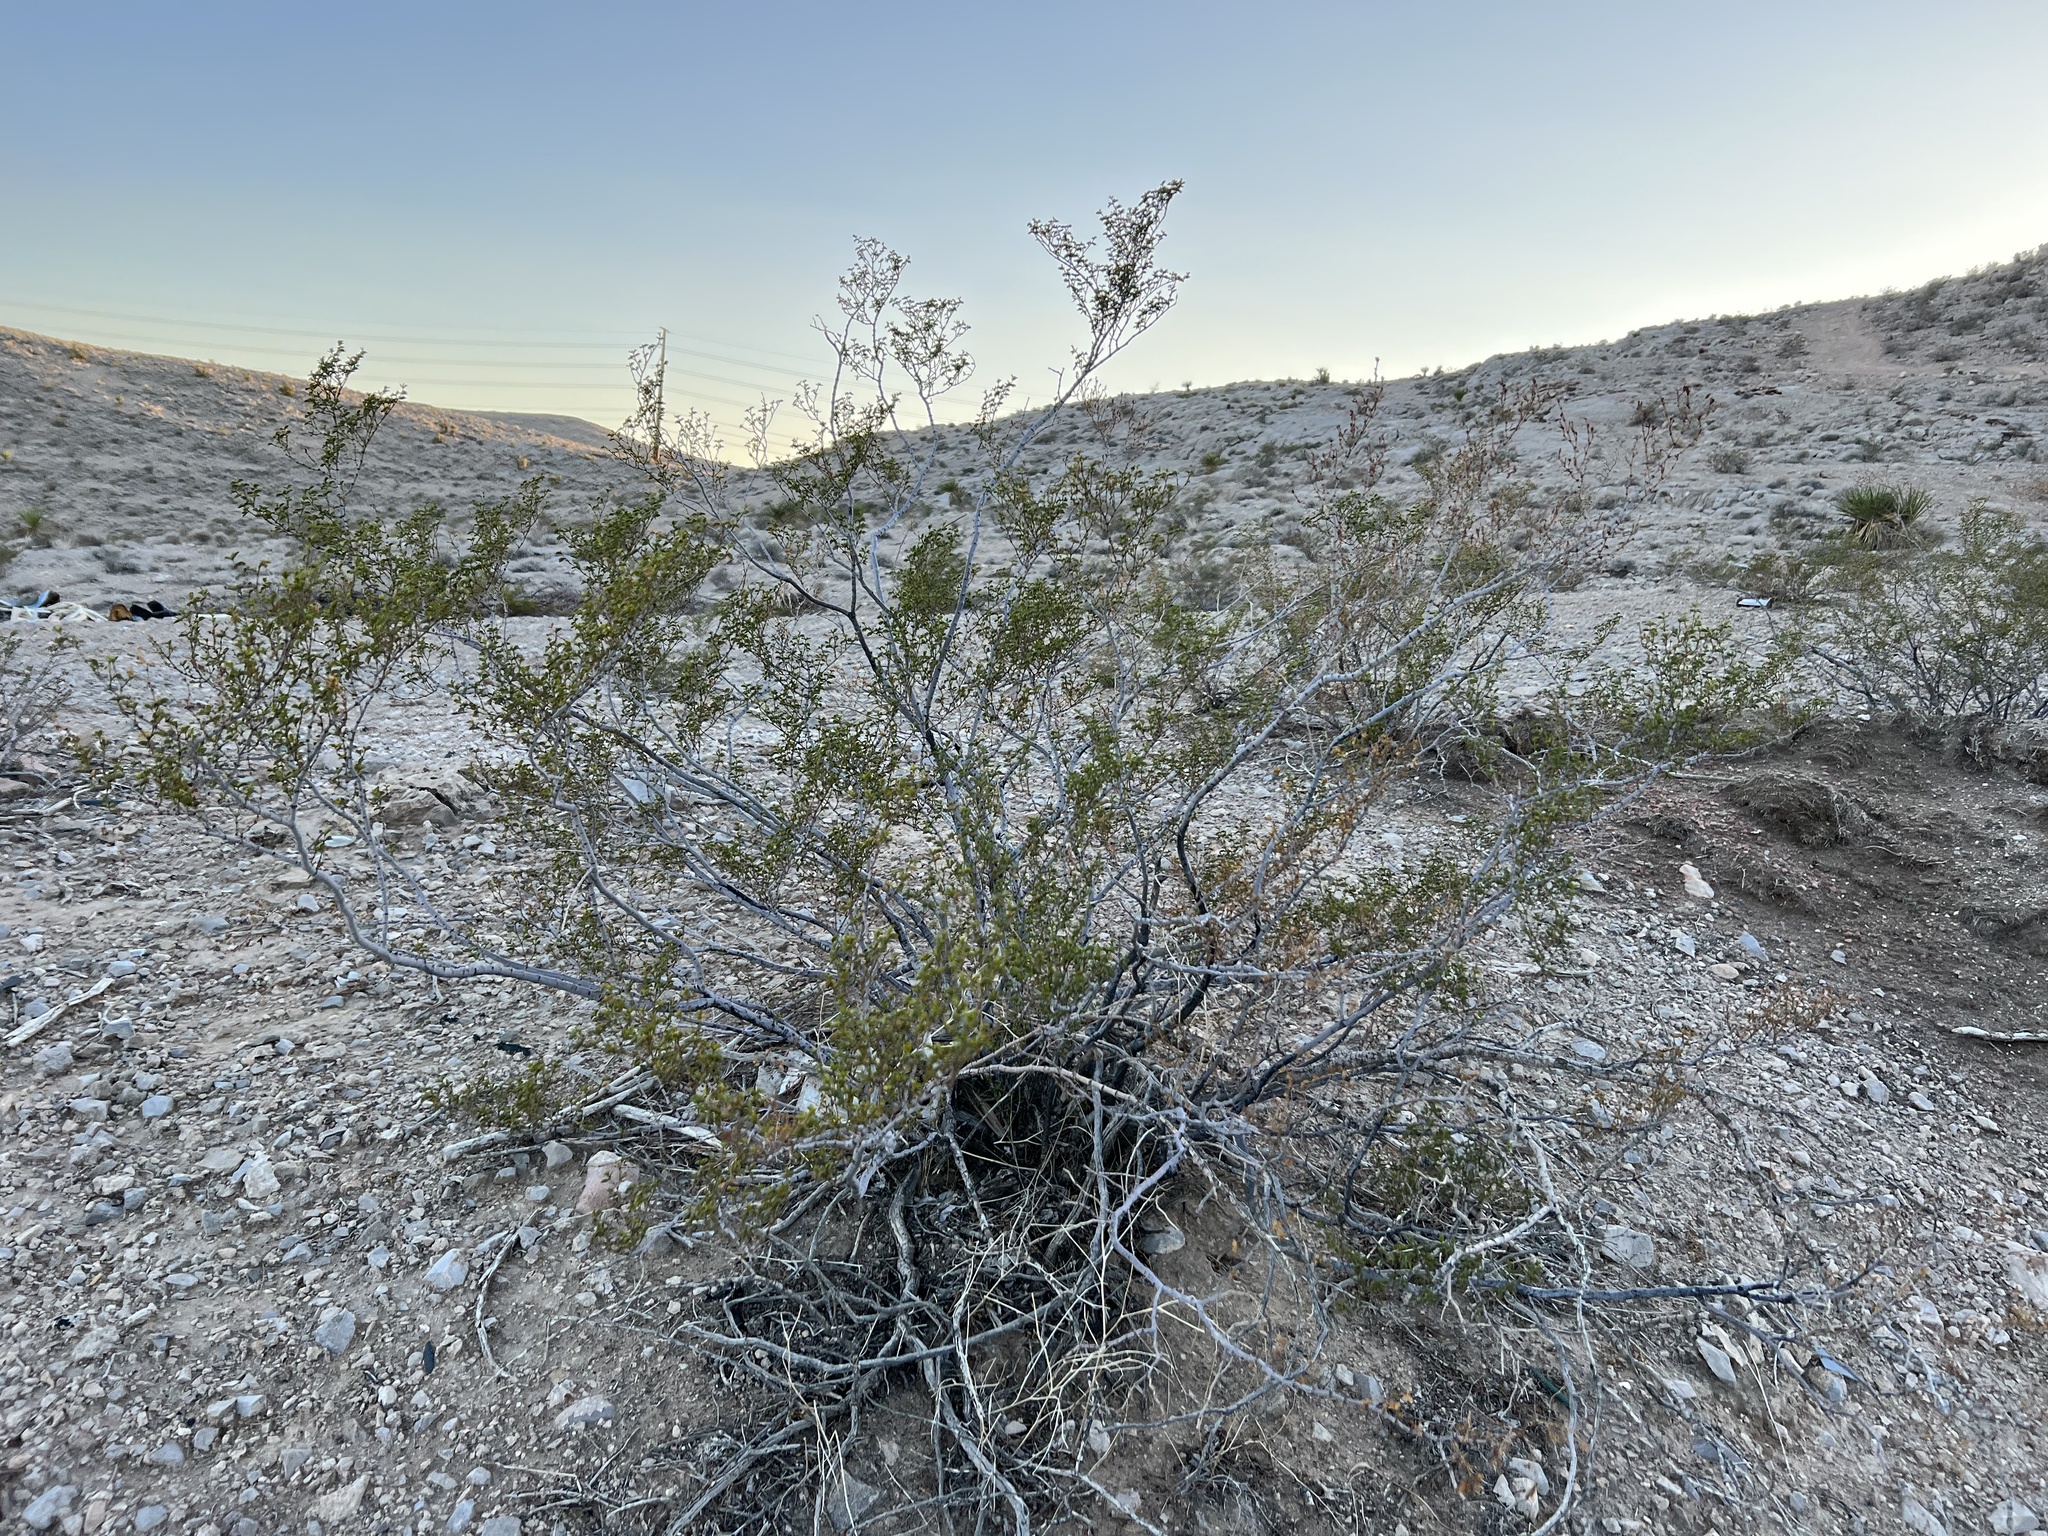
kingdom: Plantae
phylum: Tracheophyta
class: Magnoliopsida
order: Zygophyllales
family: Zygophyllaceae
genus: Larrea
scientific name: Larrea tridentata
